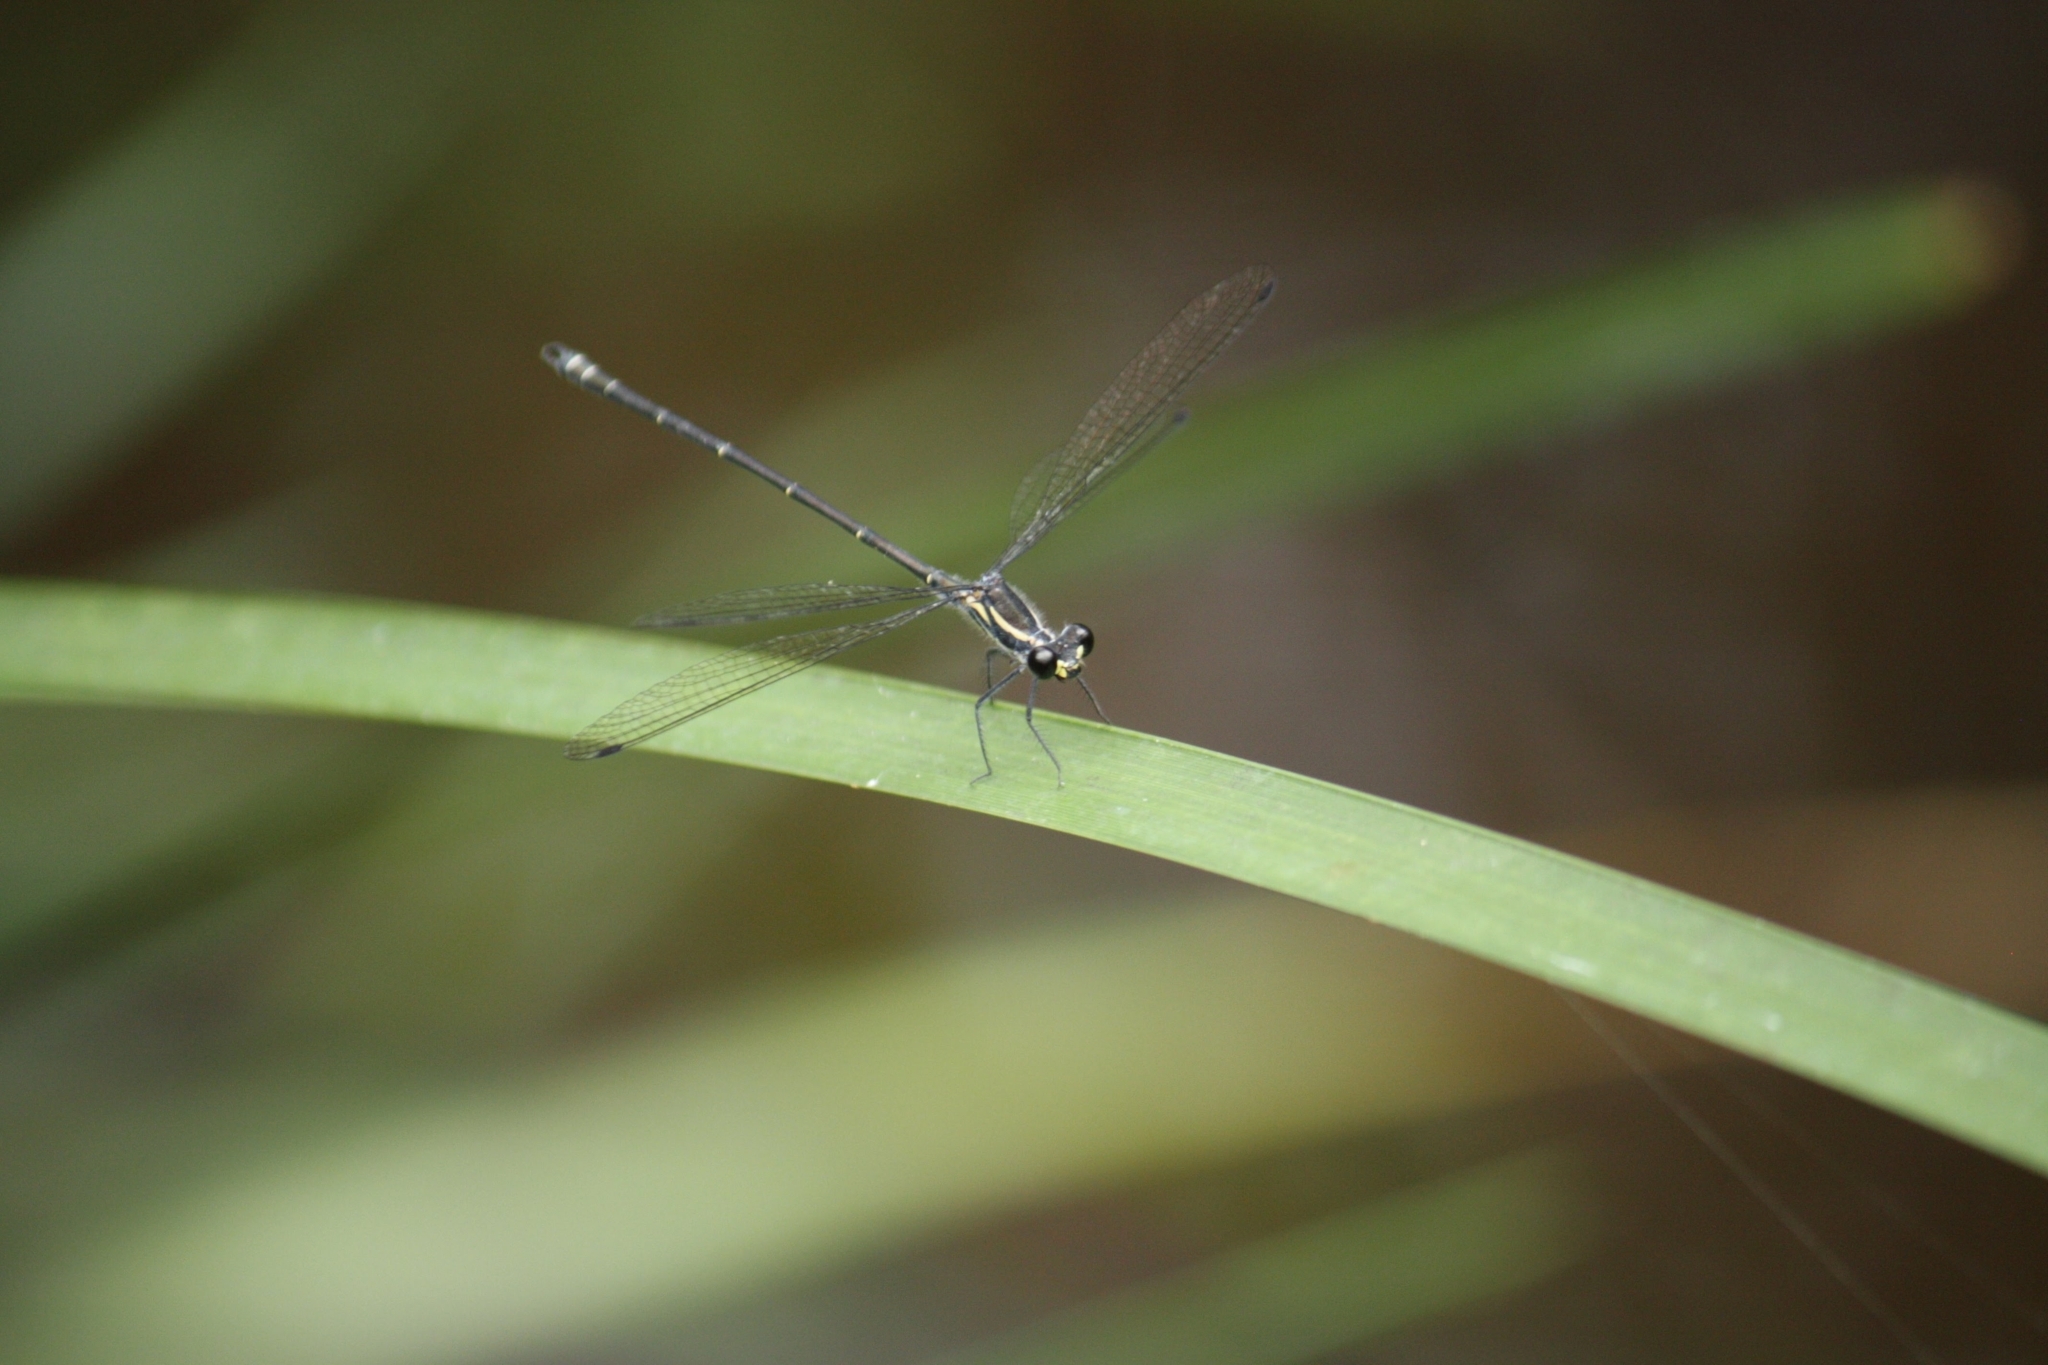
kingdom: Animalia
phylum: Arthropoda
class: Insecta
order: Odonata
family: Argiolestidae
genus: Austroargiolestes
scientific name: Austroargiolestes icteromelas
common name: Common flatwing
